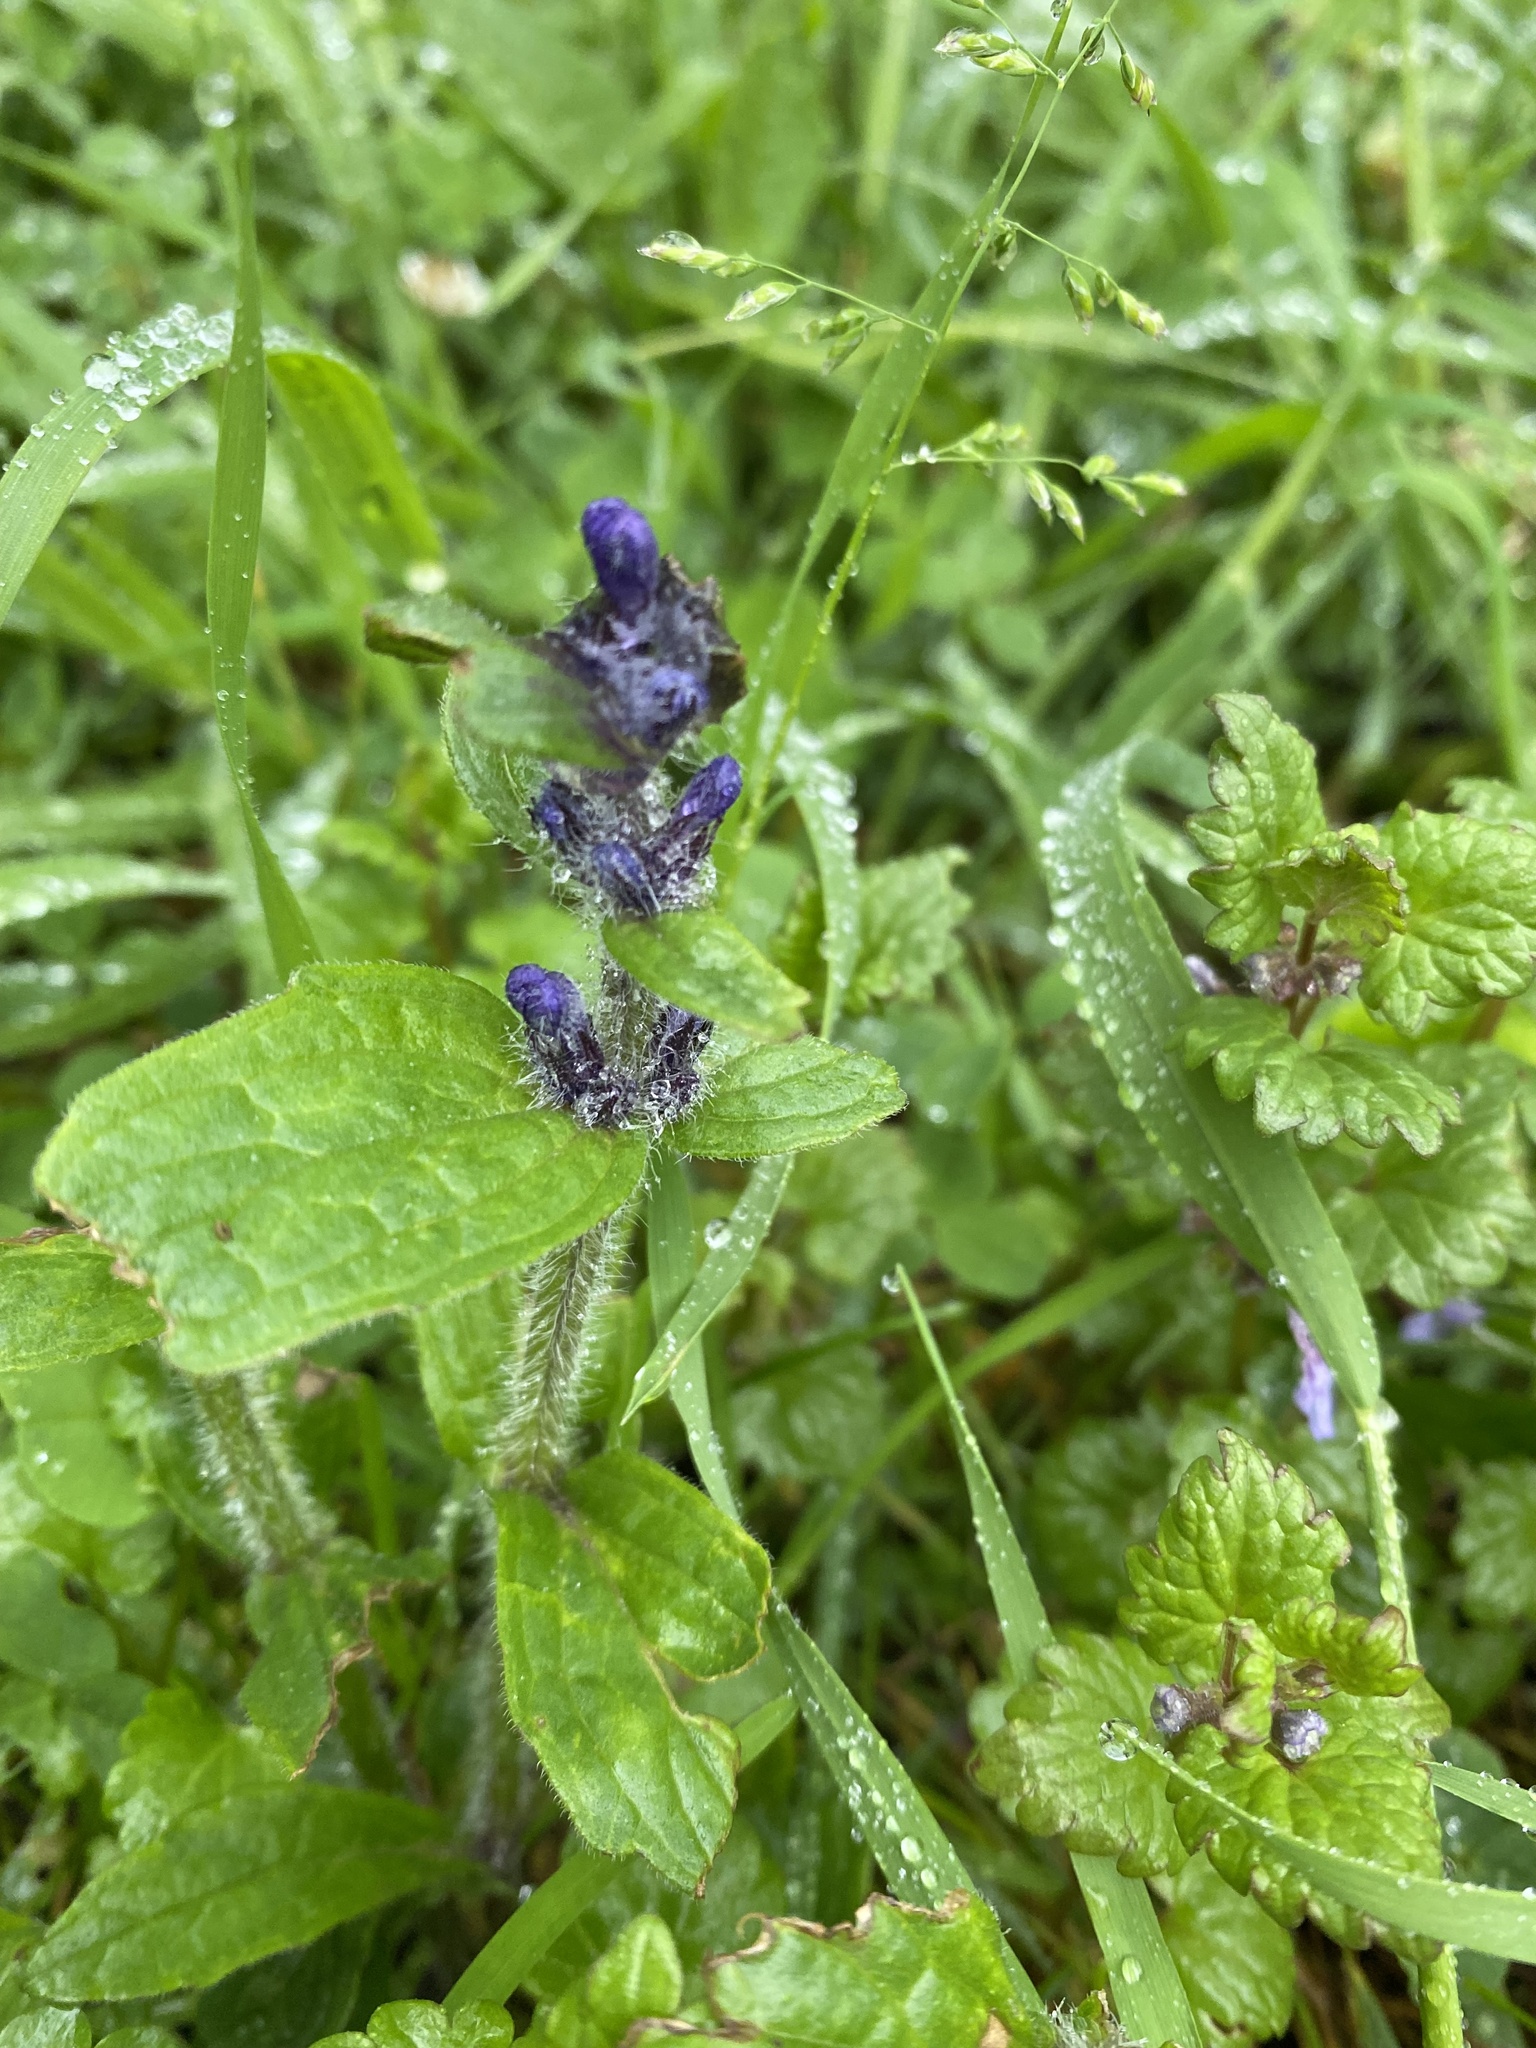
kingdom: Plantae
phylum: Tracheophyta
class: Magnoliopsida
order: Lamiales
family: Lamiaceae
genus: Ajuga
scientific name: Ajuga genevensis
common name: Blue bugle
